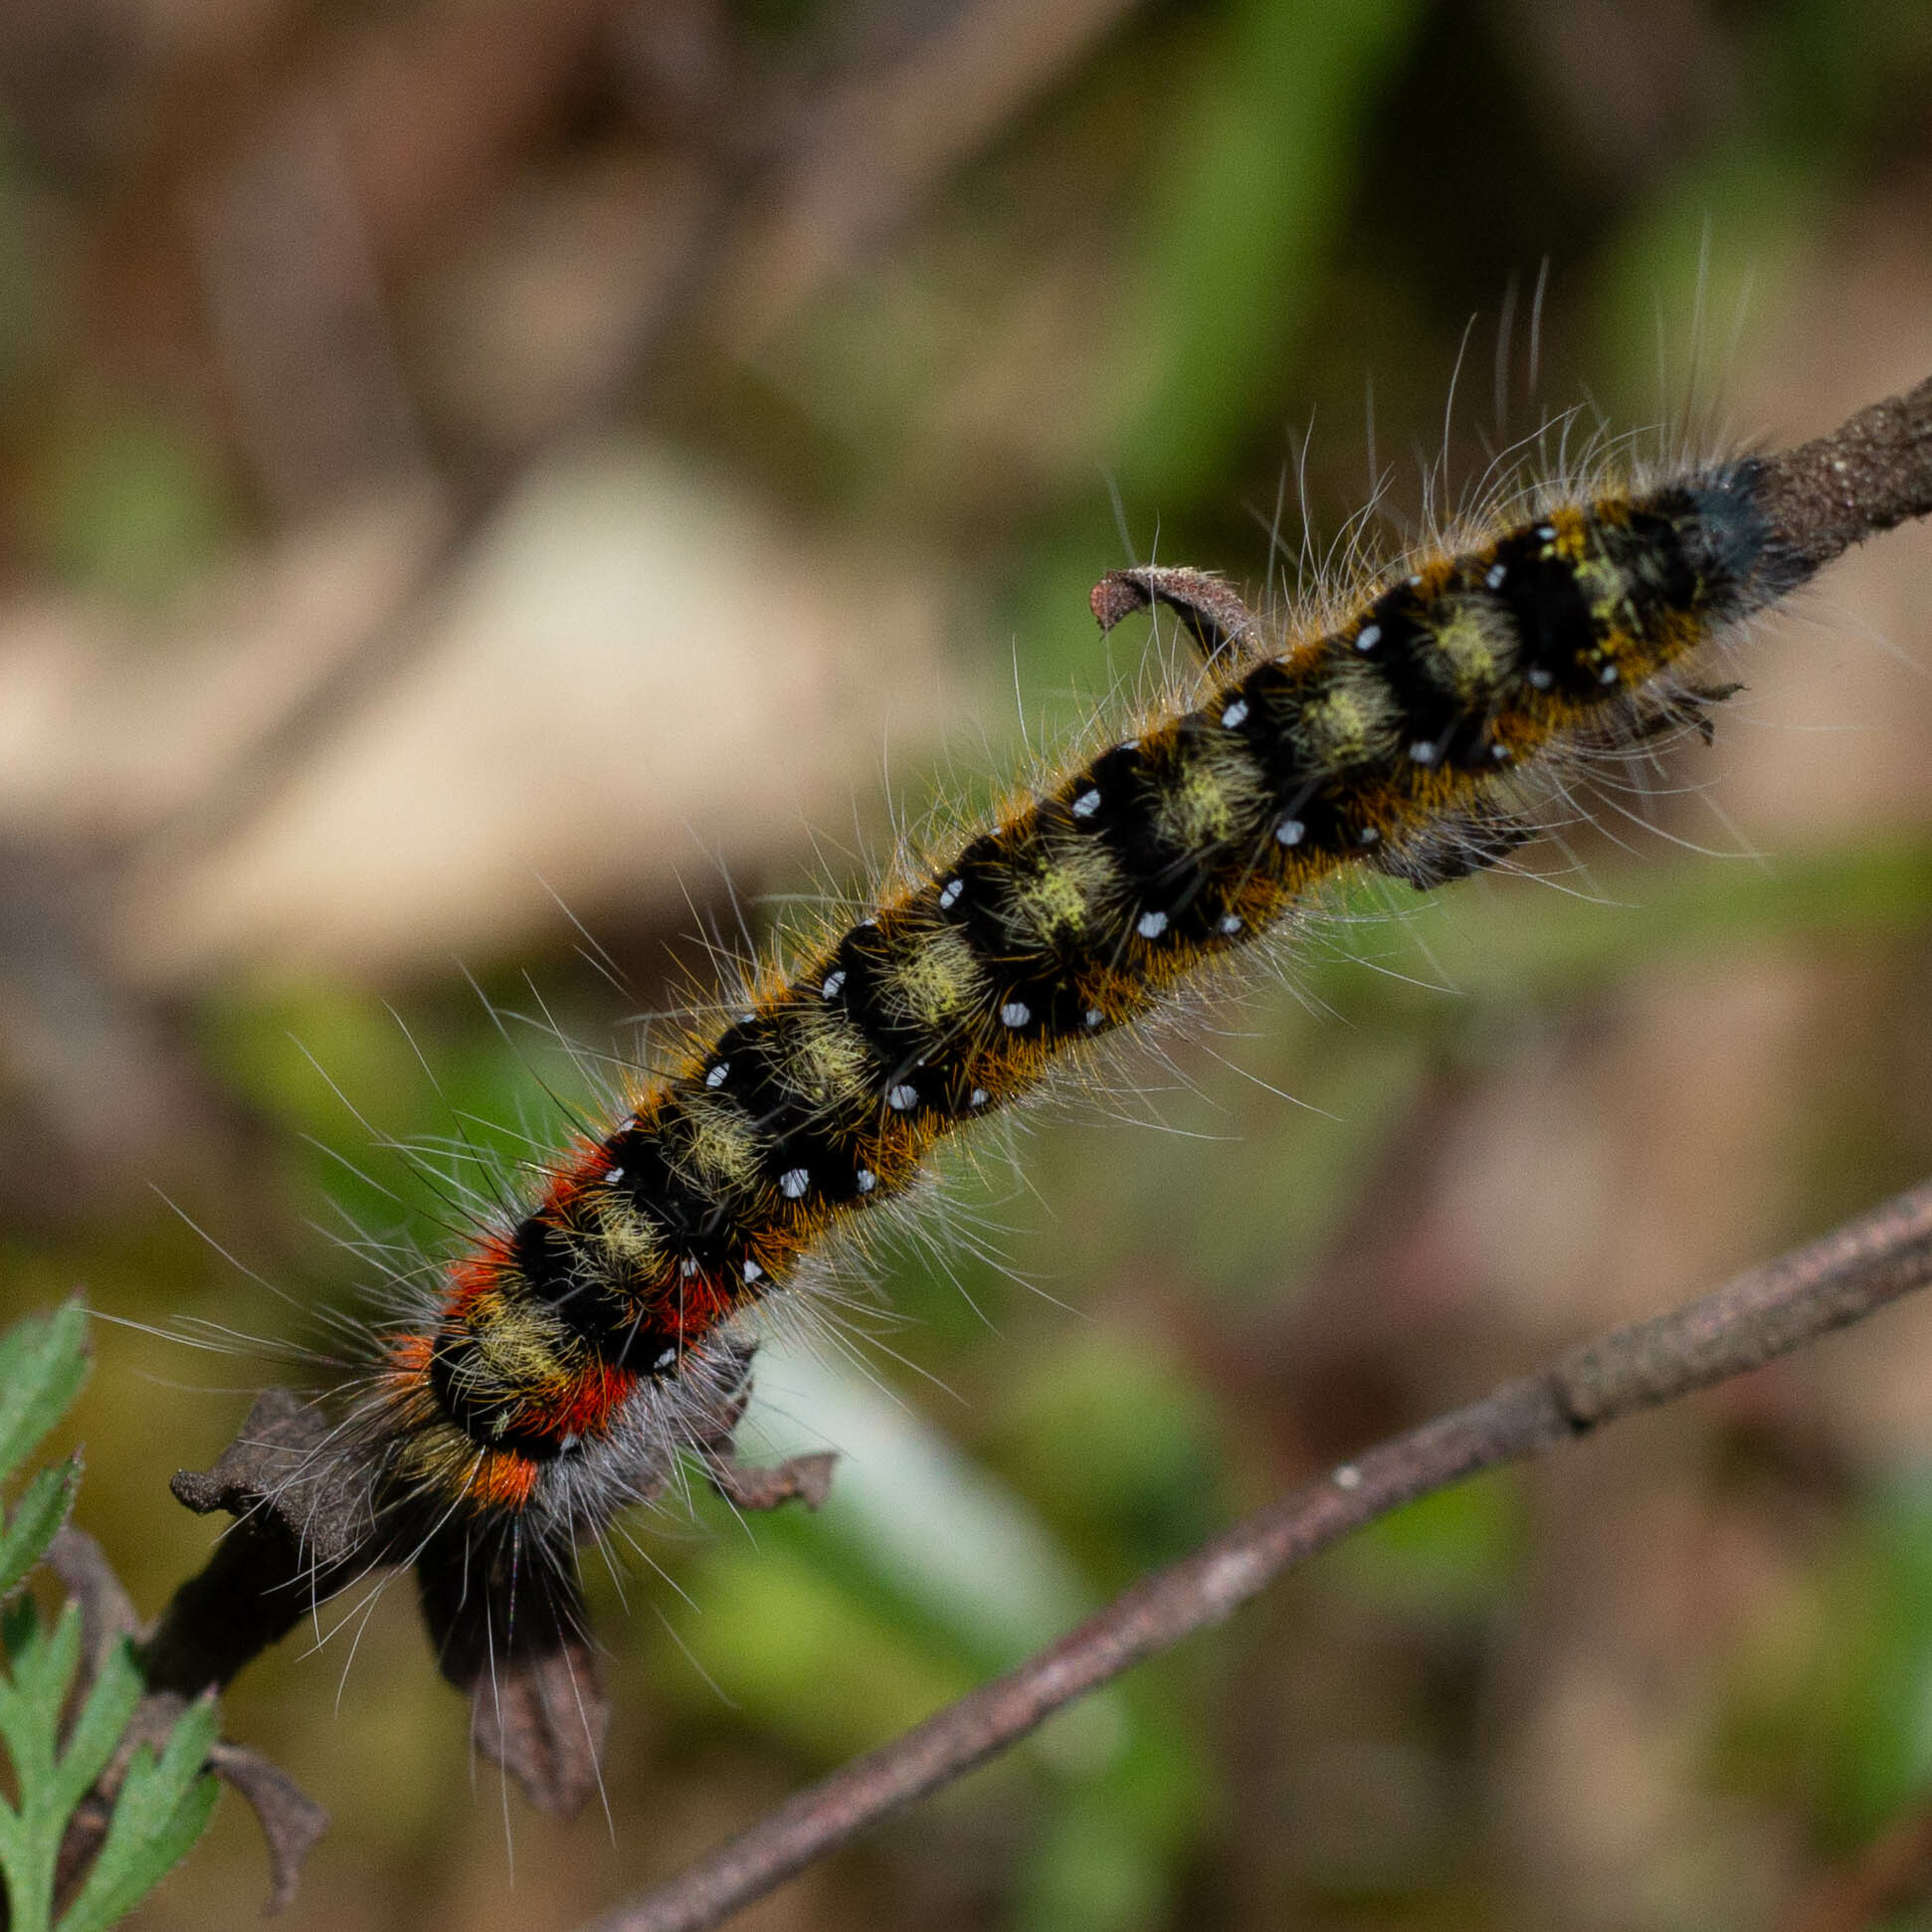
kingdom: Animalia
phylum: Arthropoda
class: Insecta
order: Lepidoptera
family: Lasiocampidae
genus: Psilogaster
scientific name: Psilogaster loti
